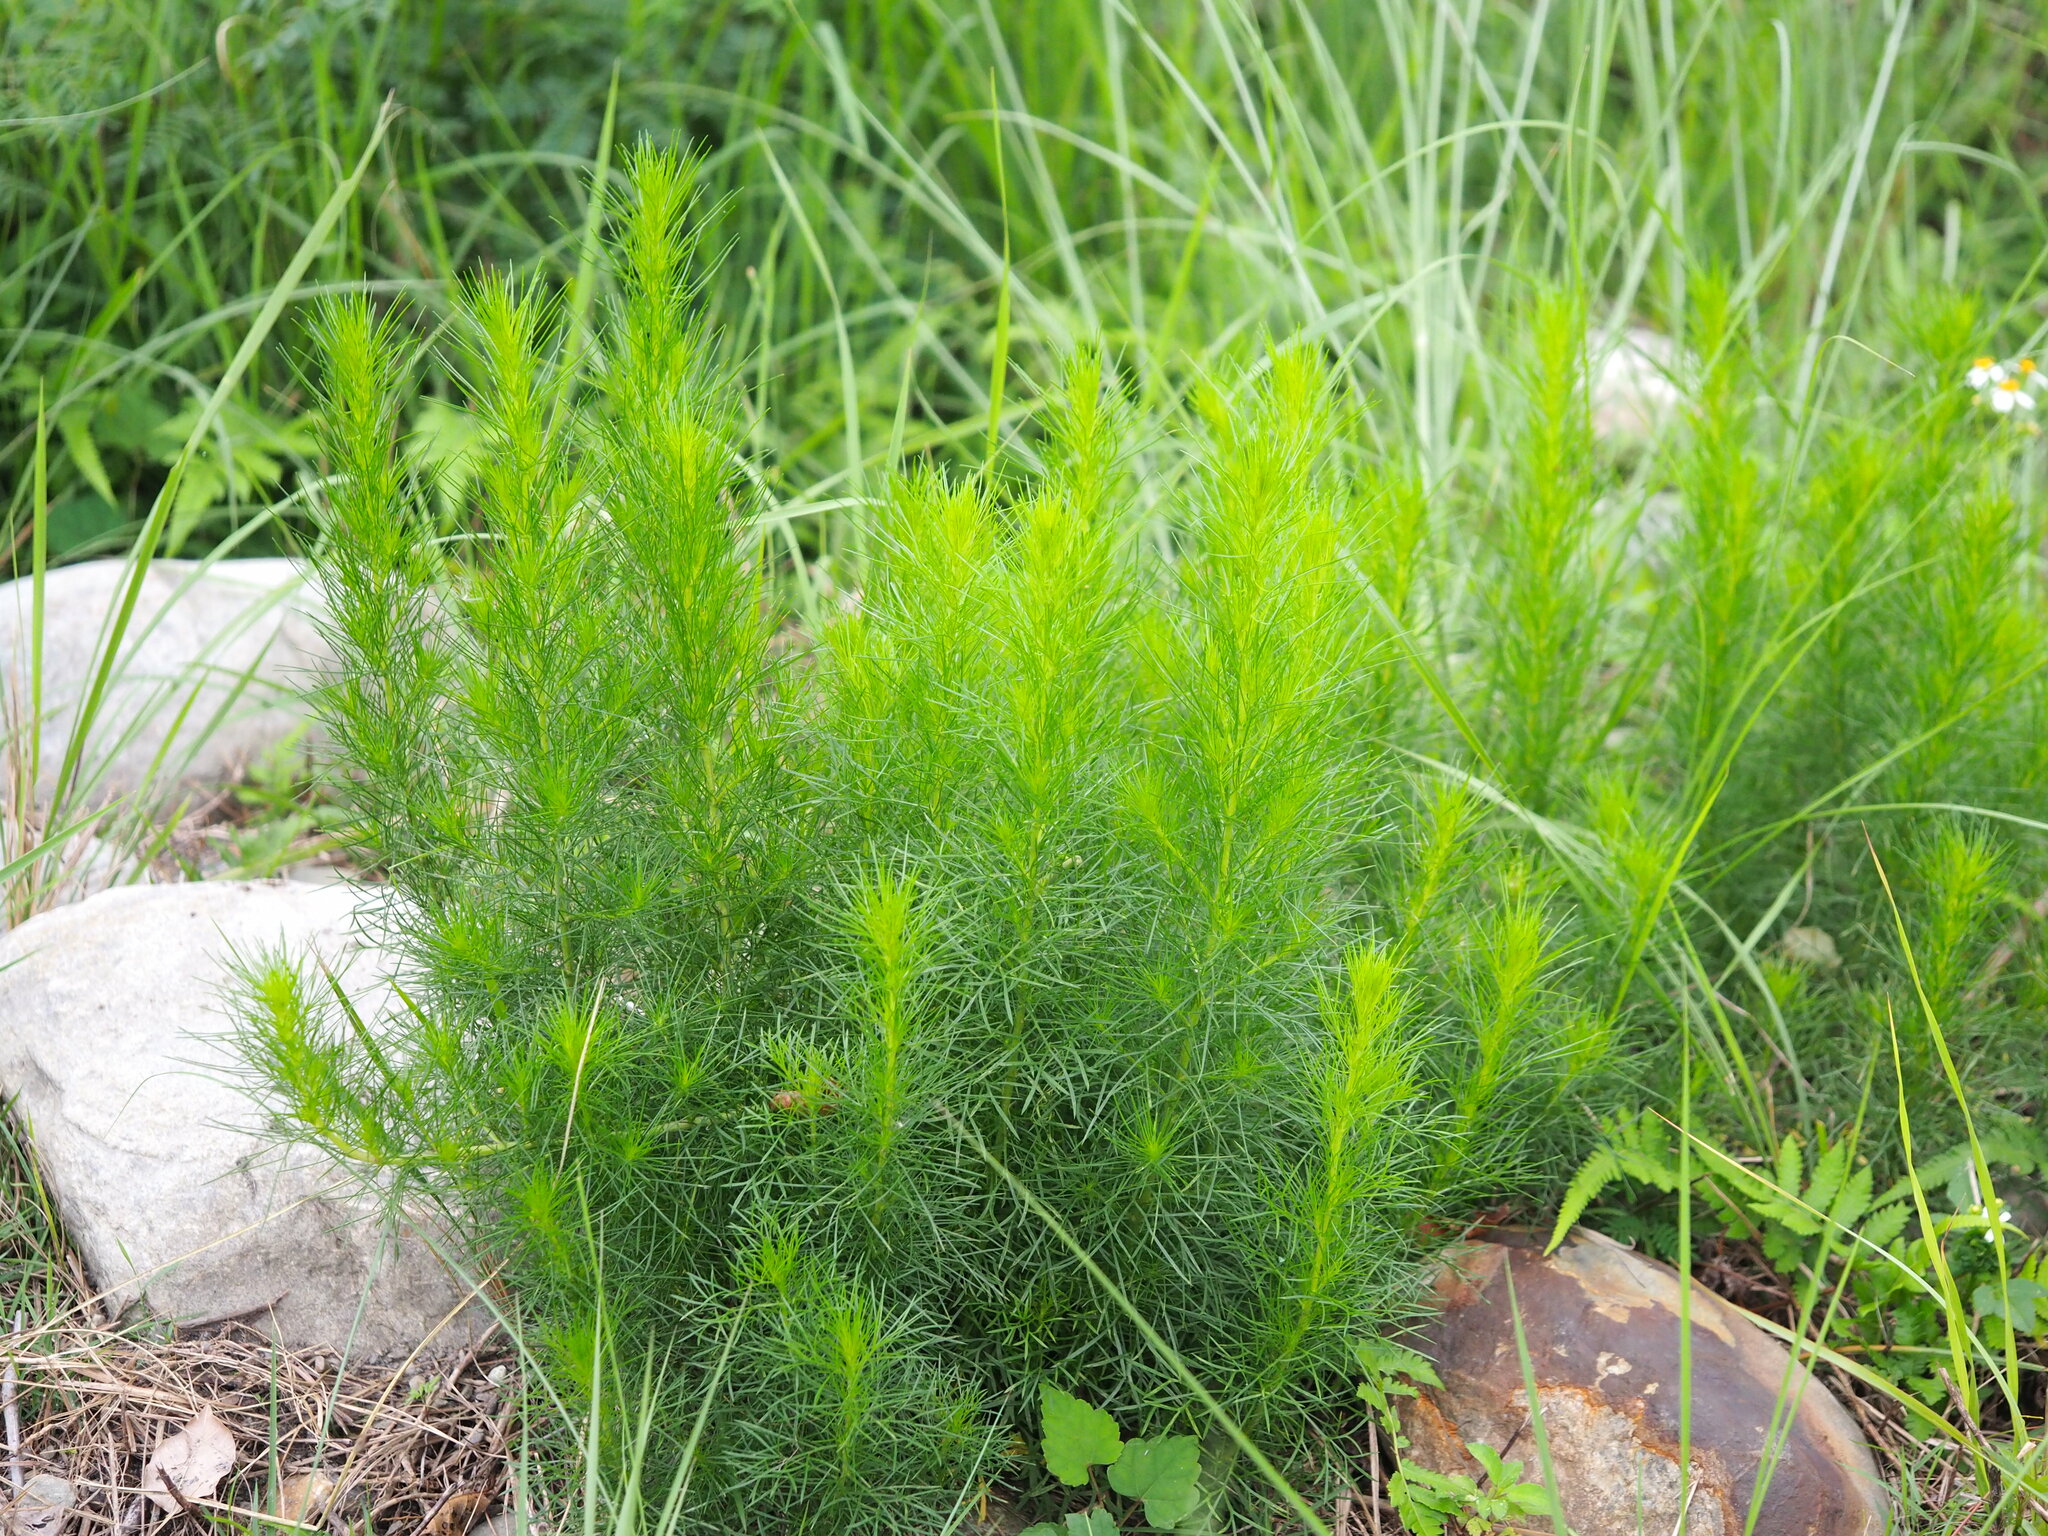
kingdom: Plantae
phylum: Tracheophyta
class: Magnoliopsida
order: Asterales
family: Asteraceae
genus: Artemisia
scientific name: Artemisia capillaris
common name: Yin-chen wormwood
